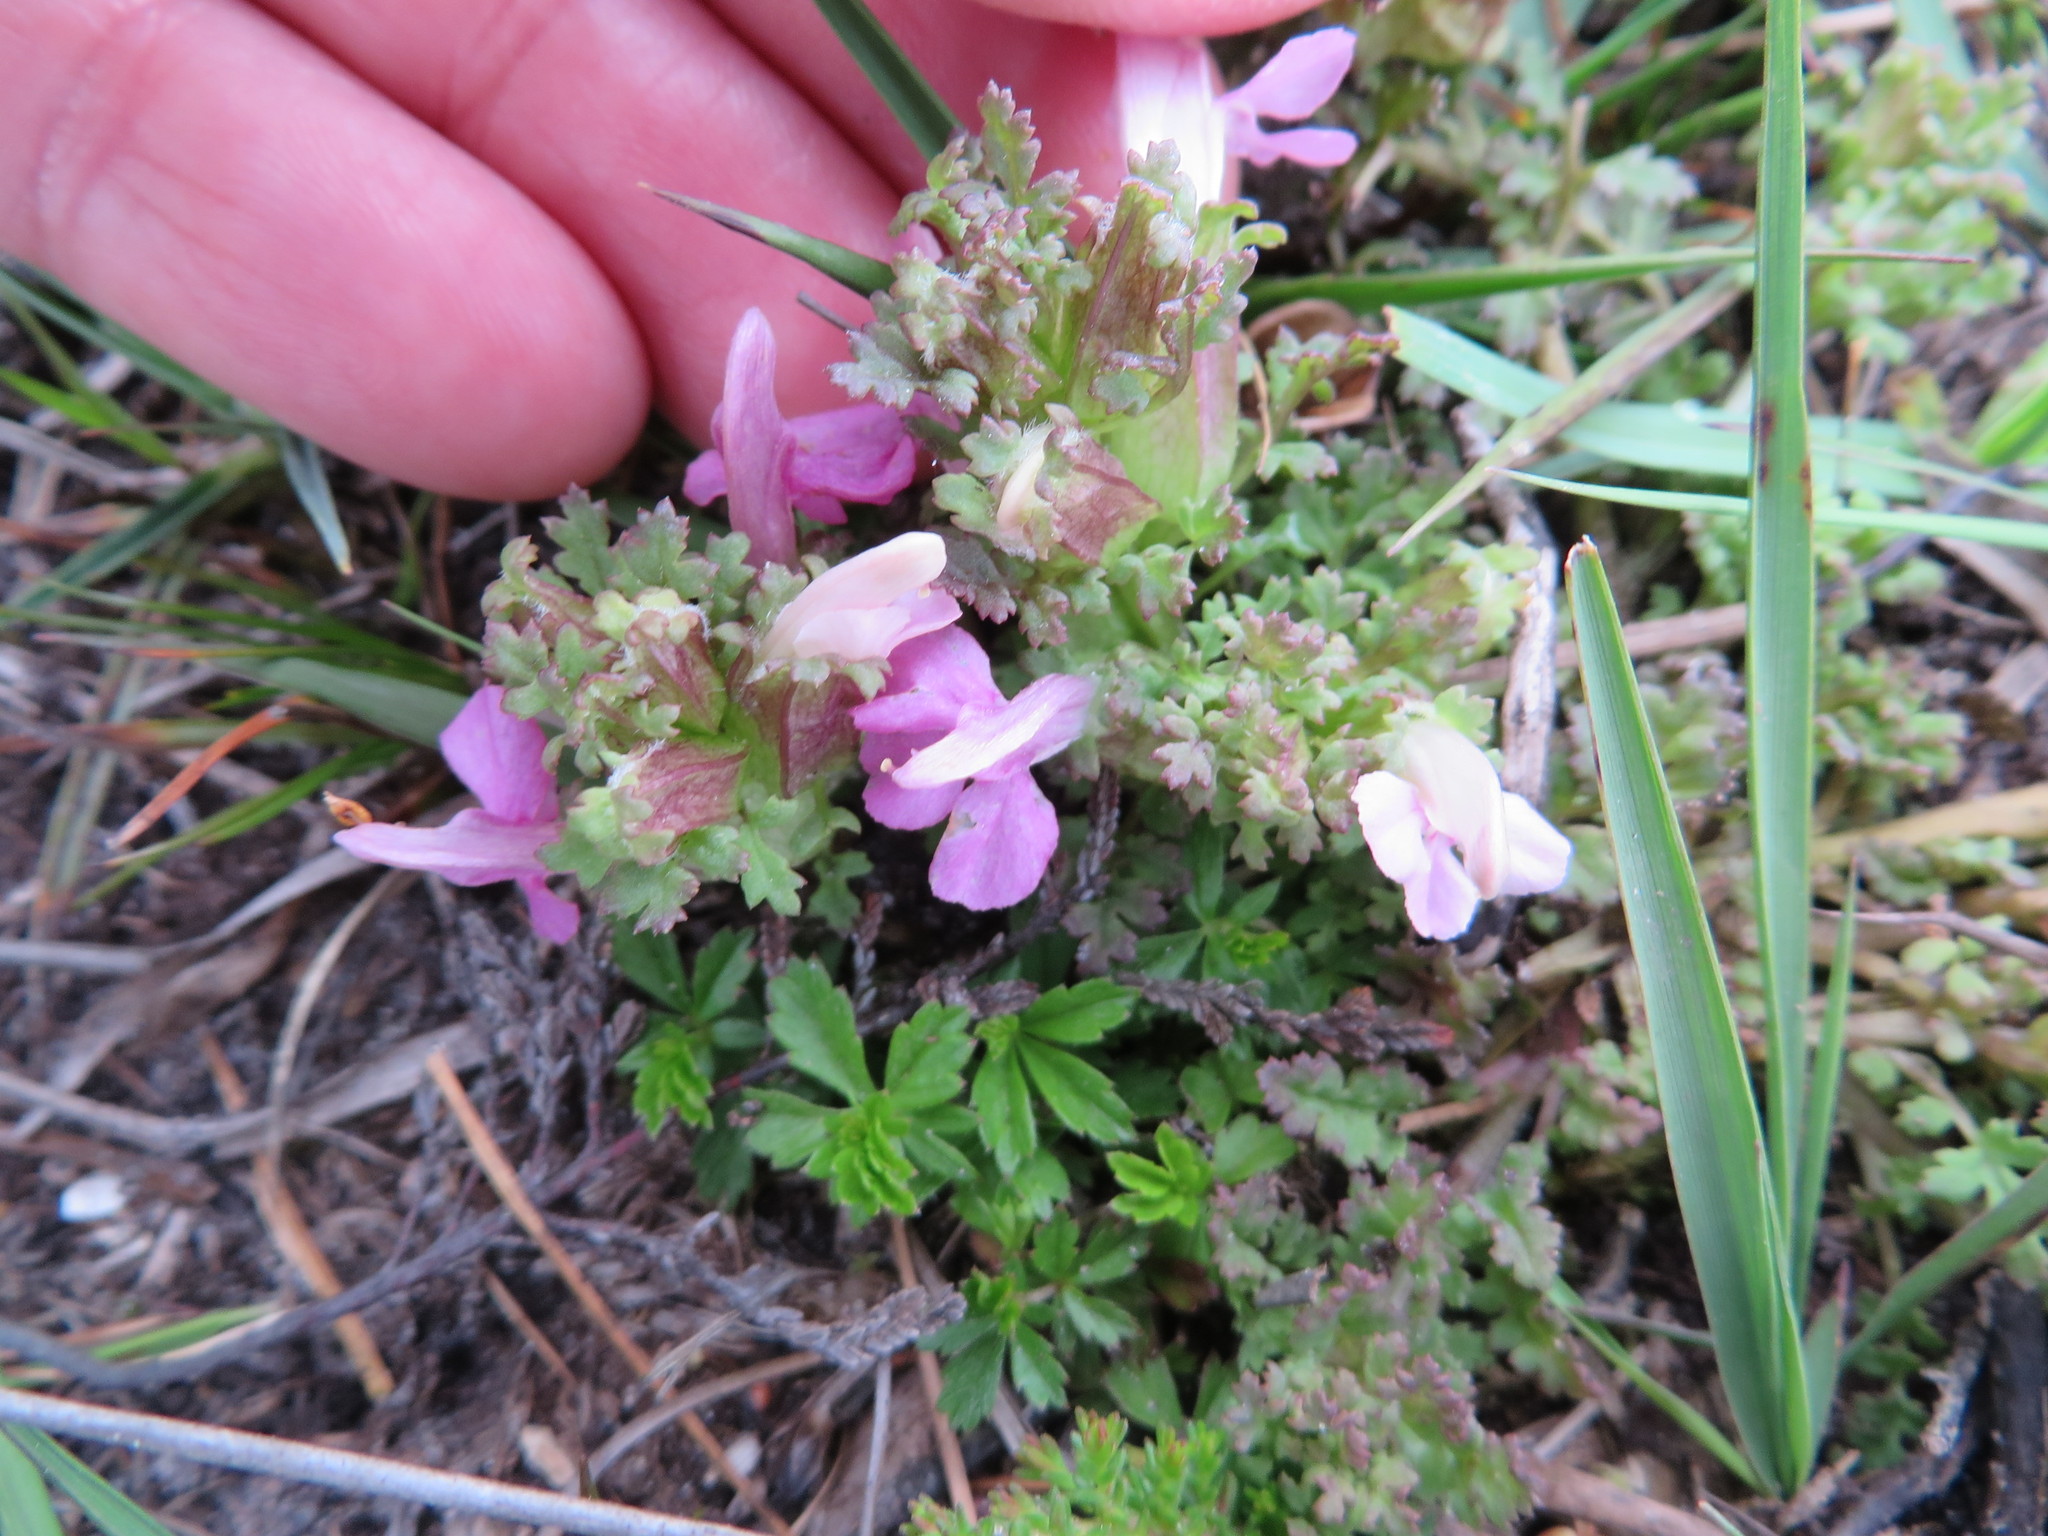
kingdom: Plantae
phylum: Tracheophyta
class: Magnoliopsida
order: Lamiales
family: Orobanchaceae
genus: Pedicularis
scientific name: Pedicularis sylvatica
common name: Lousewort
